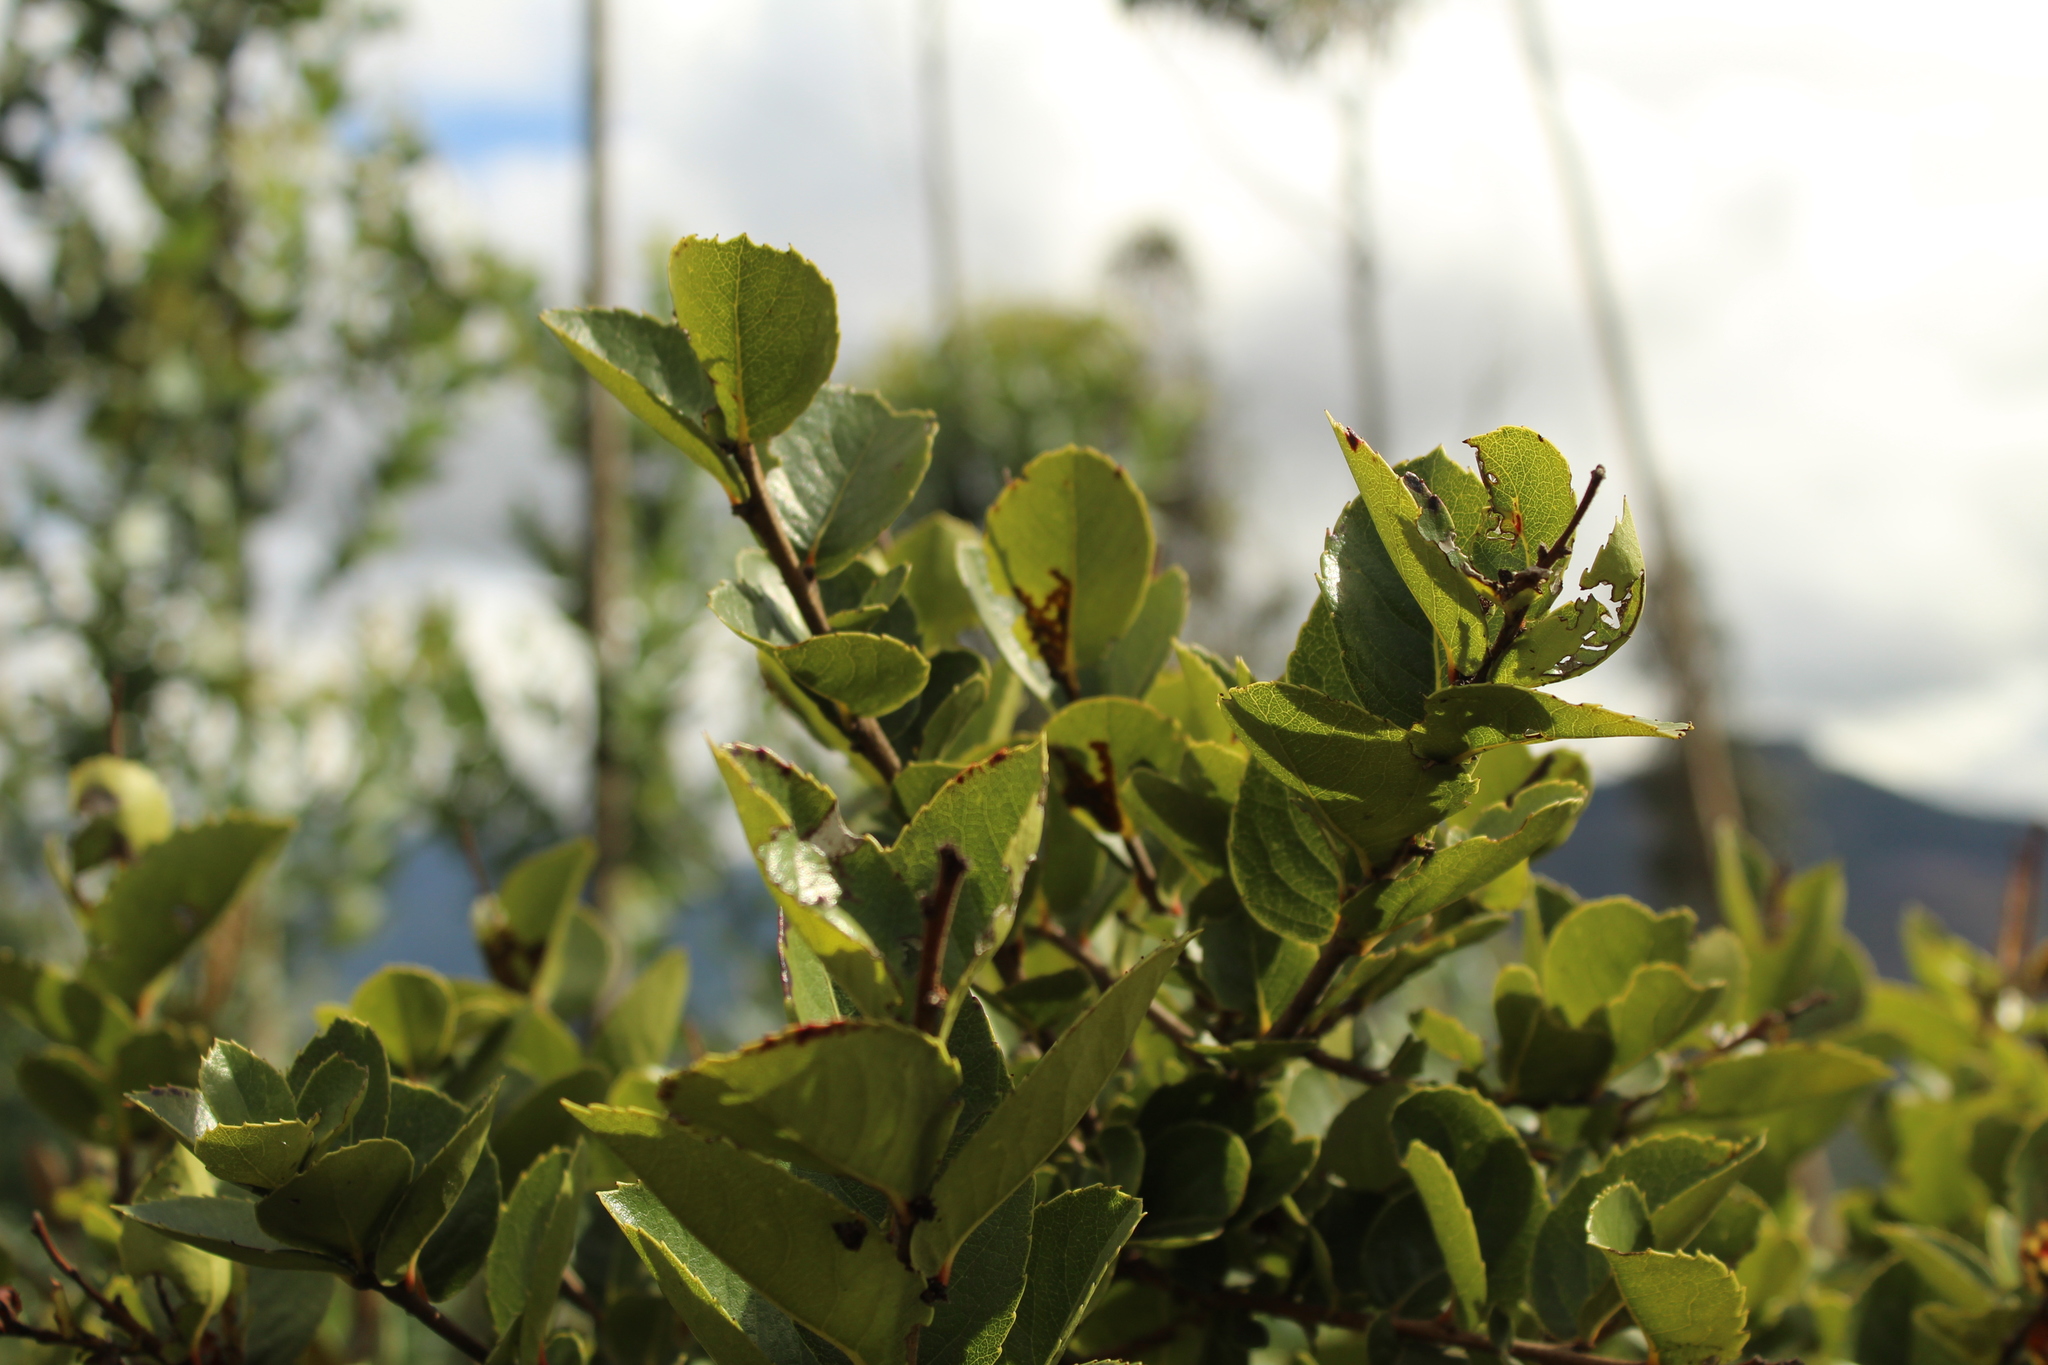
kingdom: Plantae
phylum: Tracheophyta
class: Magnoliopsida
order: Malpighiales
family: Salicaceae
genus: Xylosma
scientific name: Xylosma spiculifera
